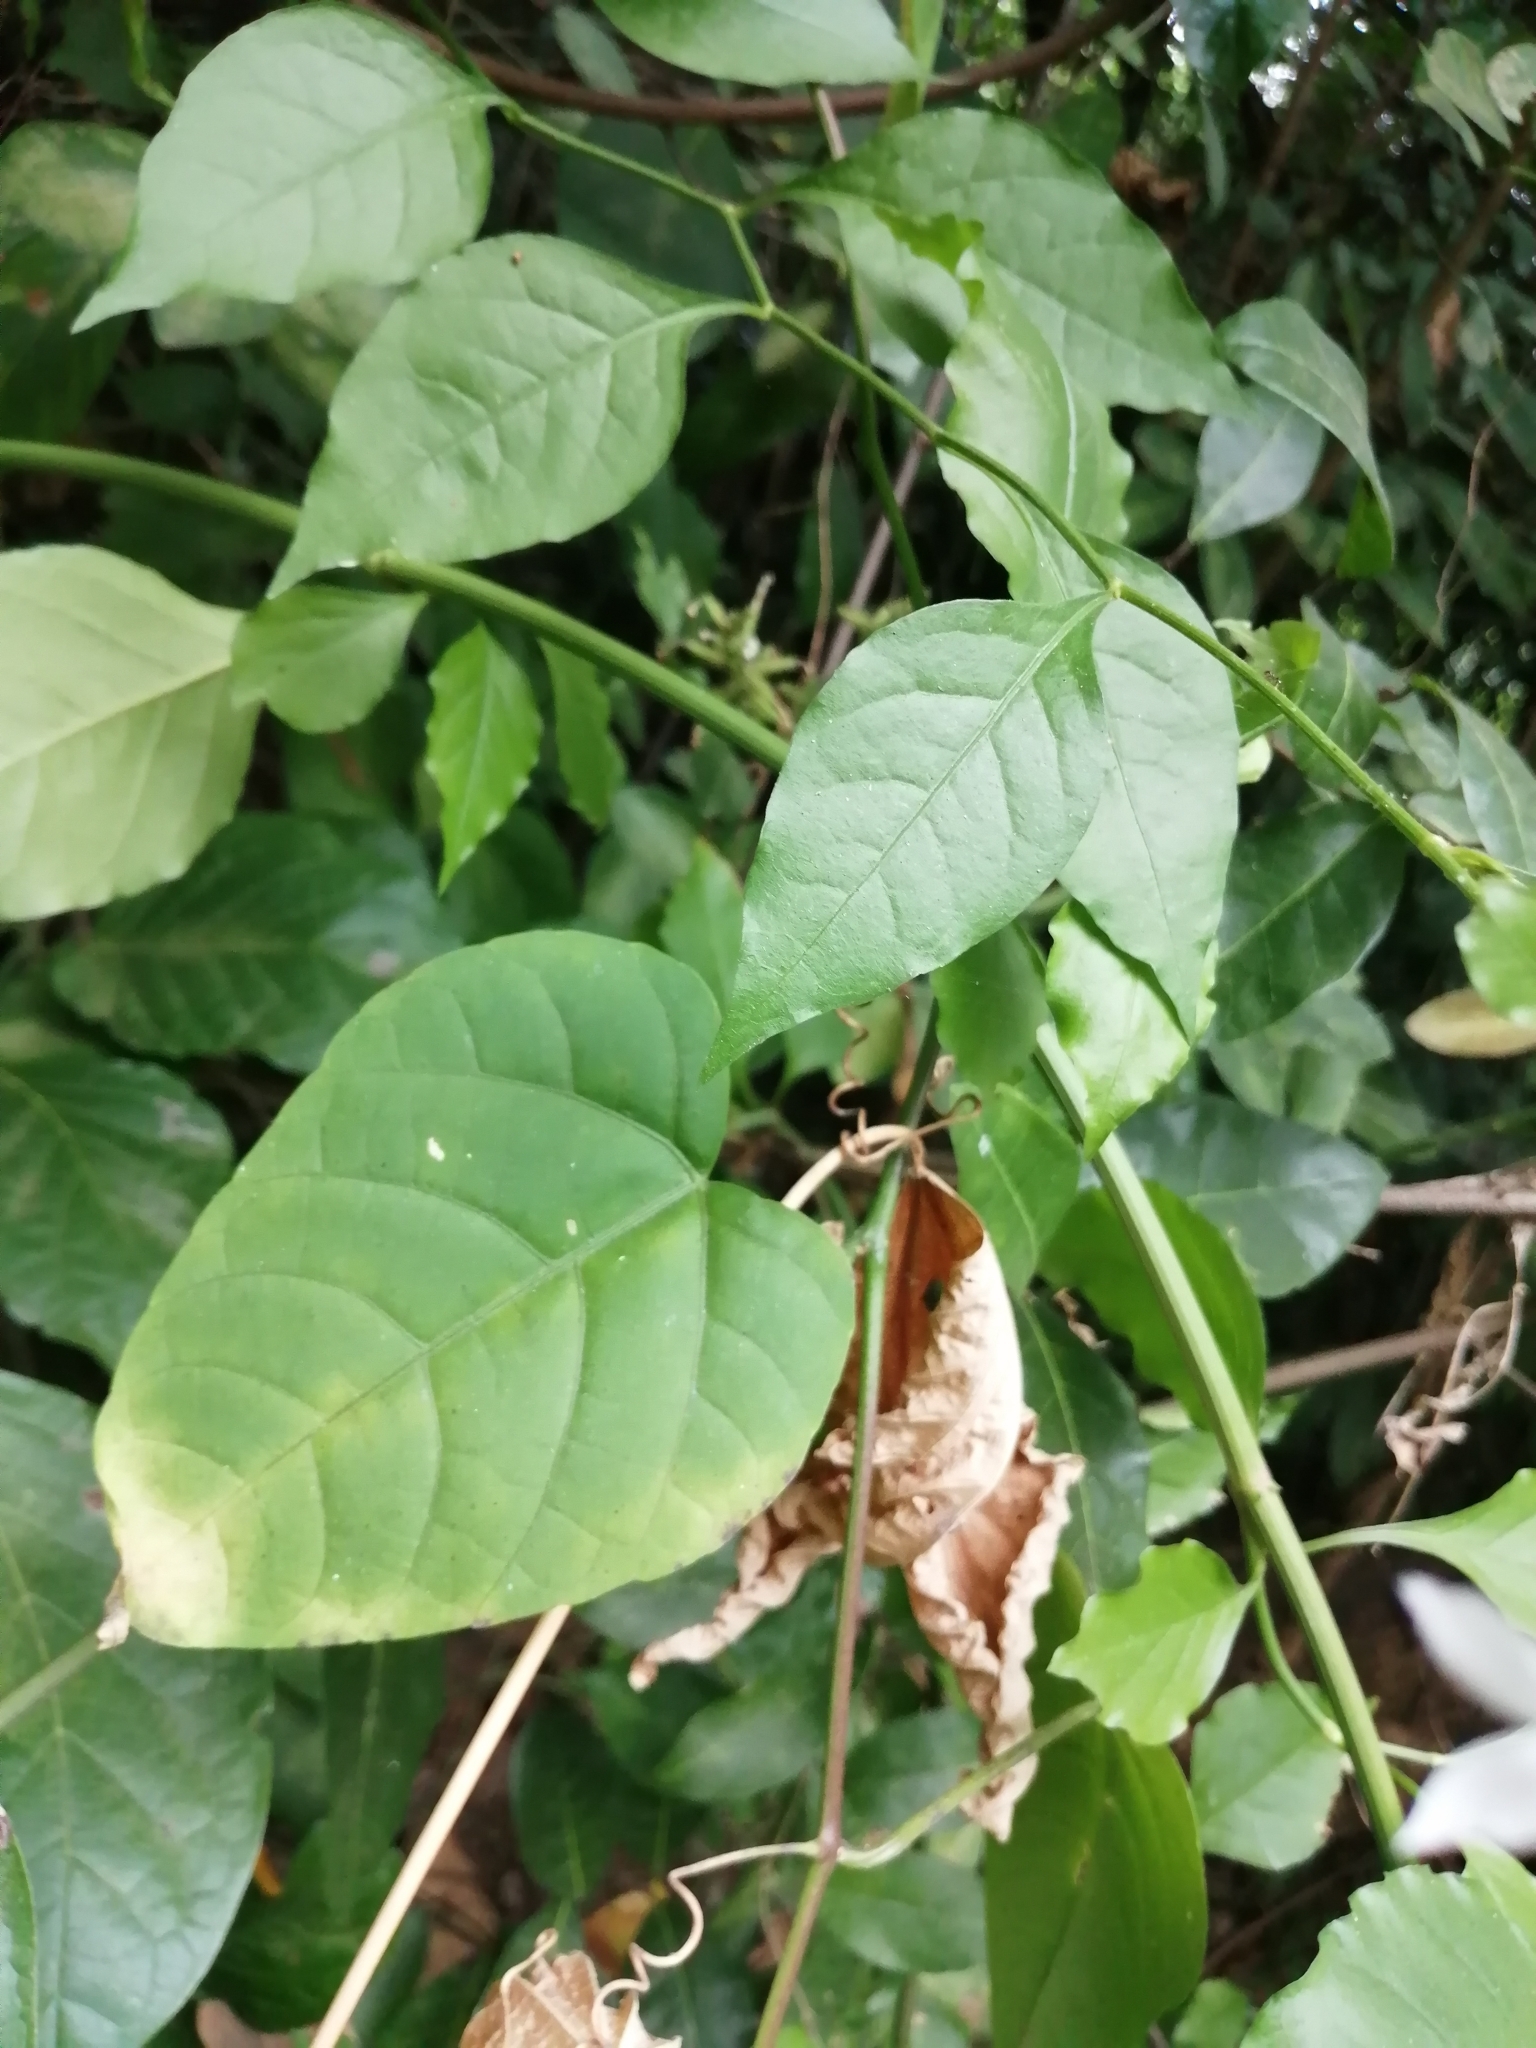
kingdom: Plantae
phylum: Tracheophyta
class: Magnoliopsida
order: Caryophyllales
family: Plumbaginaceae
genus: Plumbago
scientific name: Plumbago zeylanica
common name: Doctorbush
